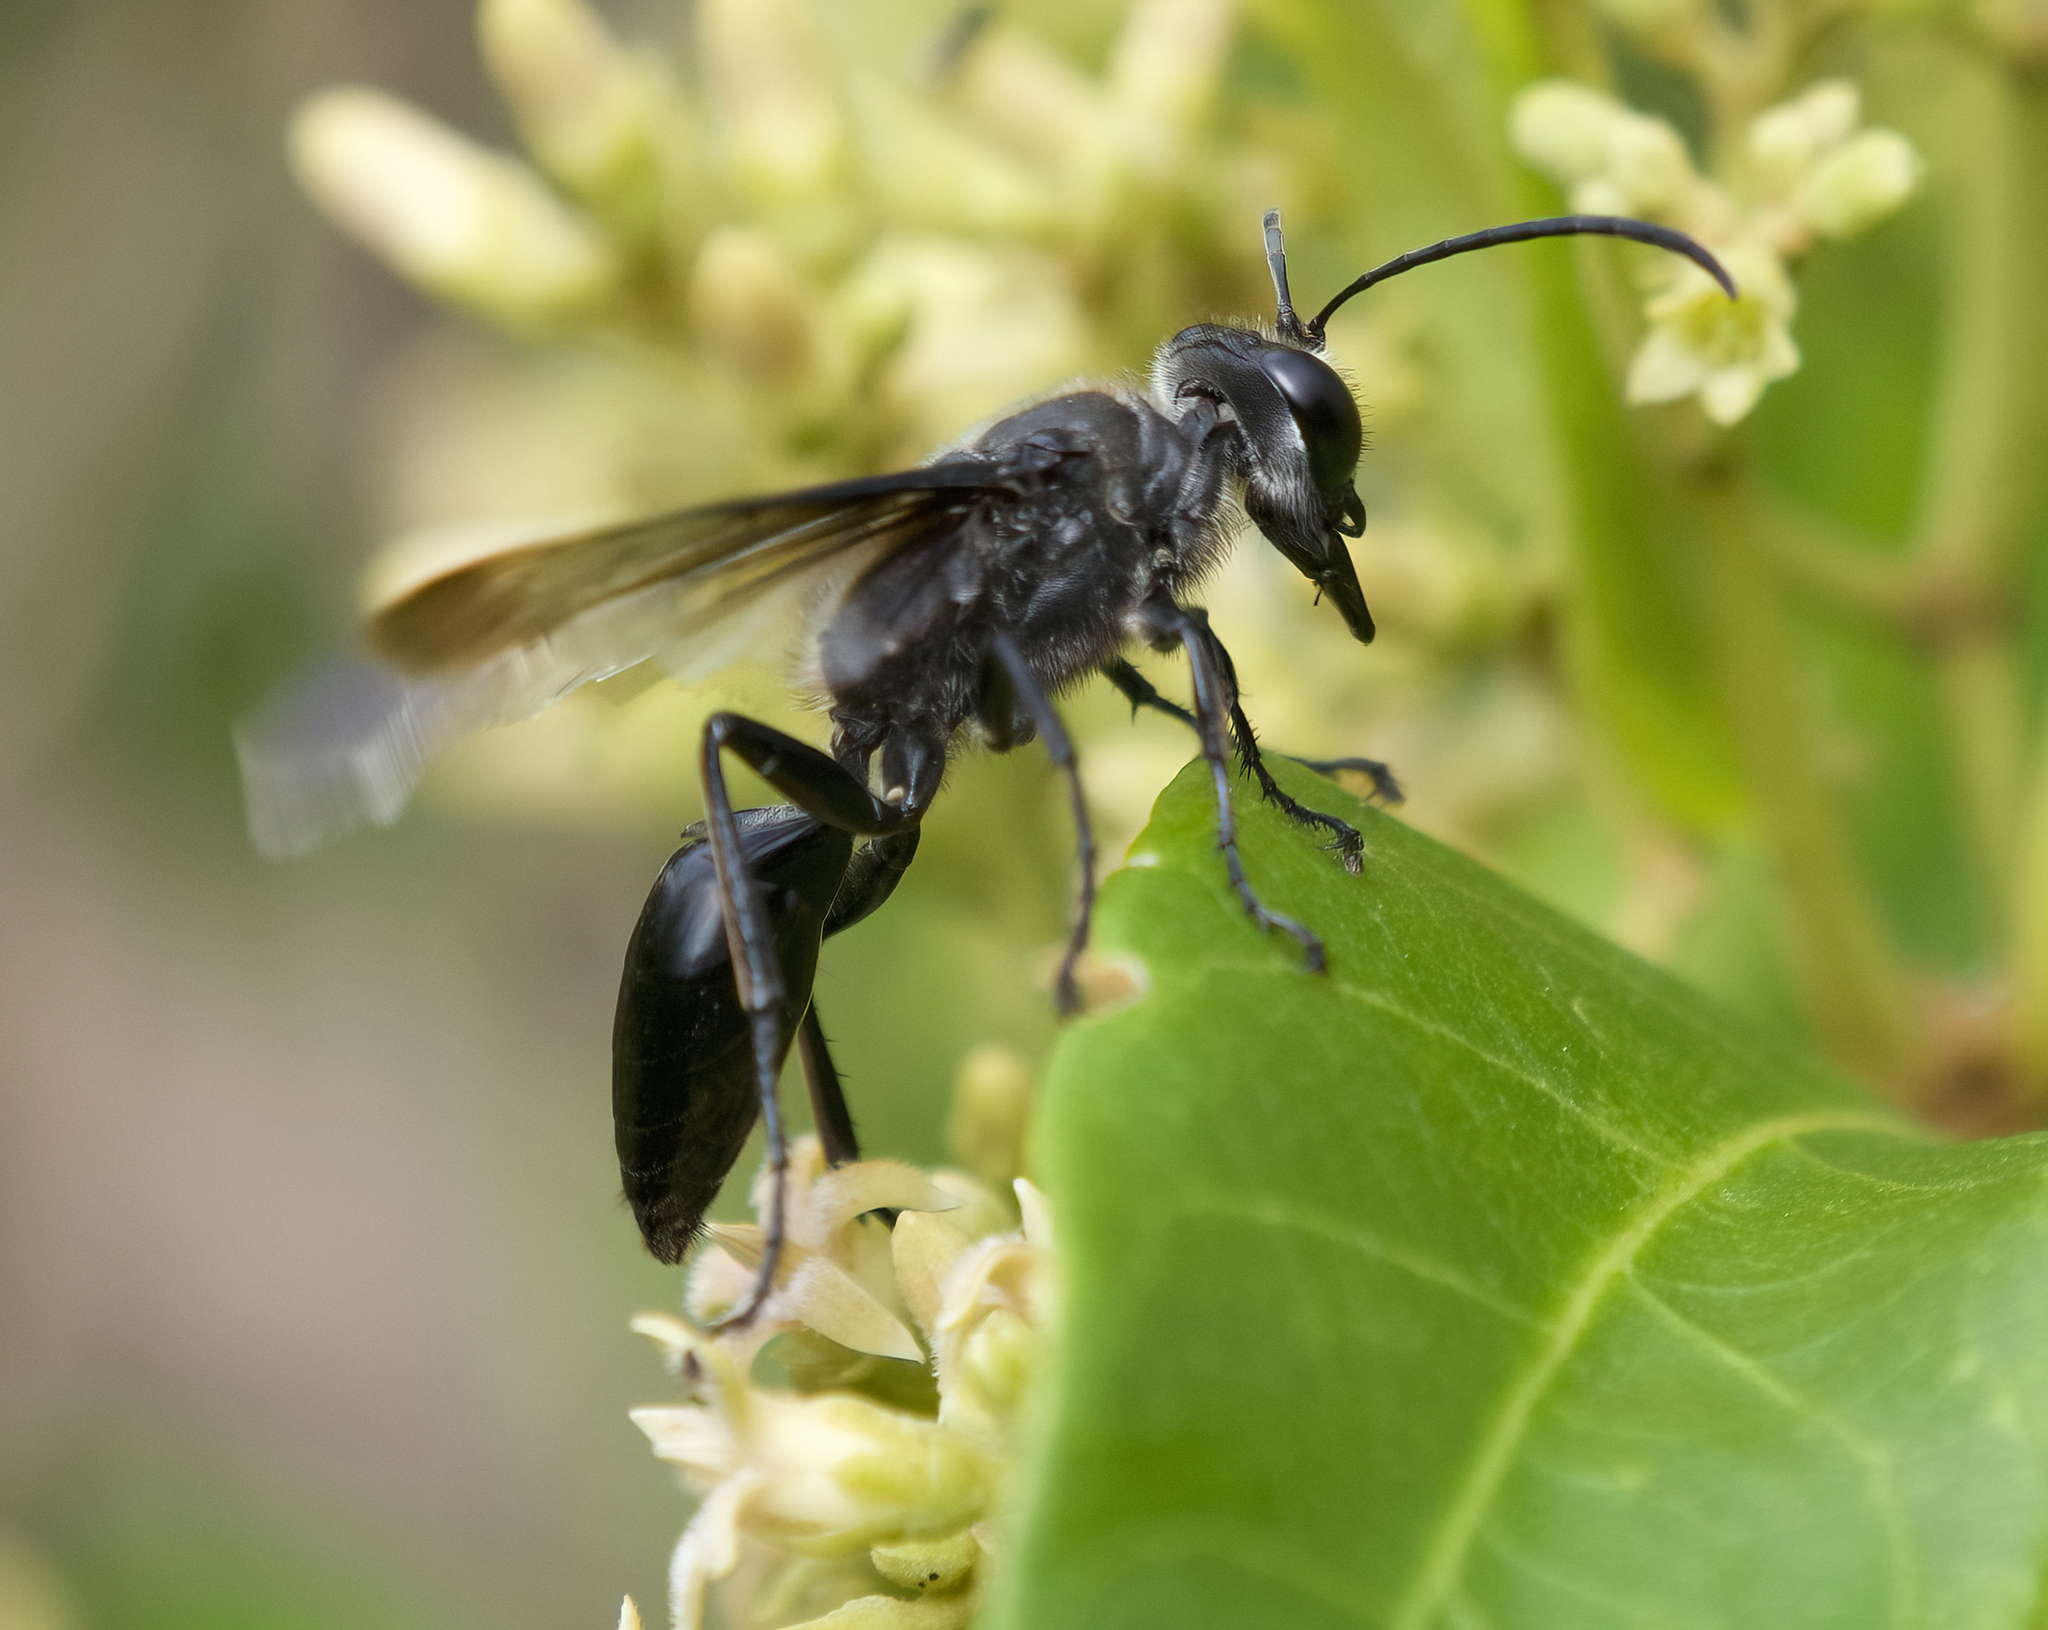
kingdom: Animalia
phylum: Arthropoda
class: Insecta
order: Hymenoptera
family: Sphecidae
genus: Sphex
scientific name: Sphex luctuosus
